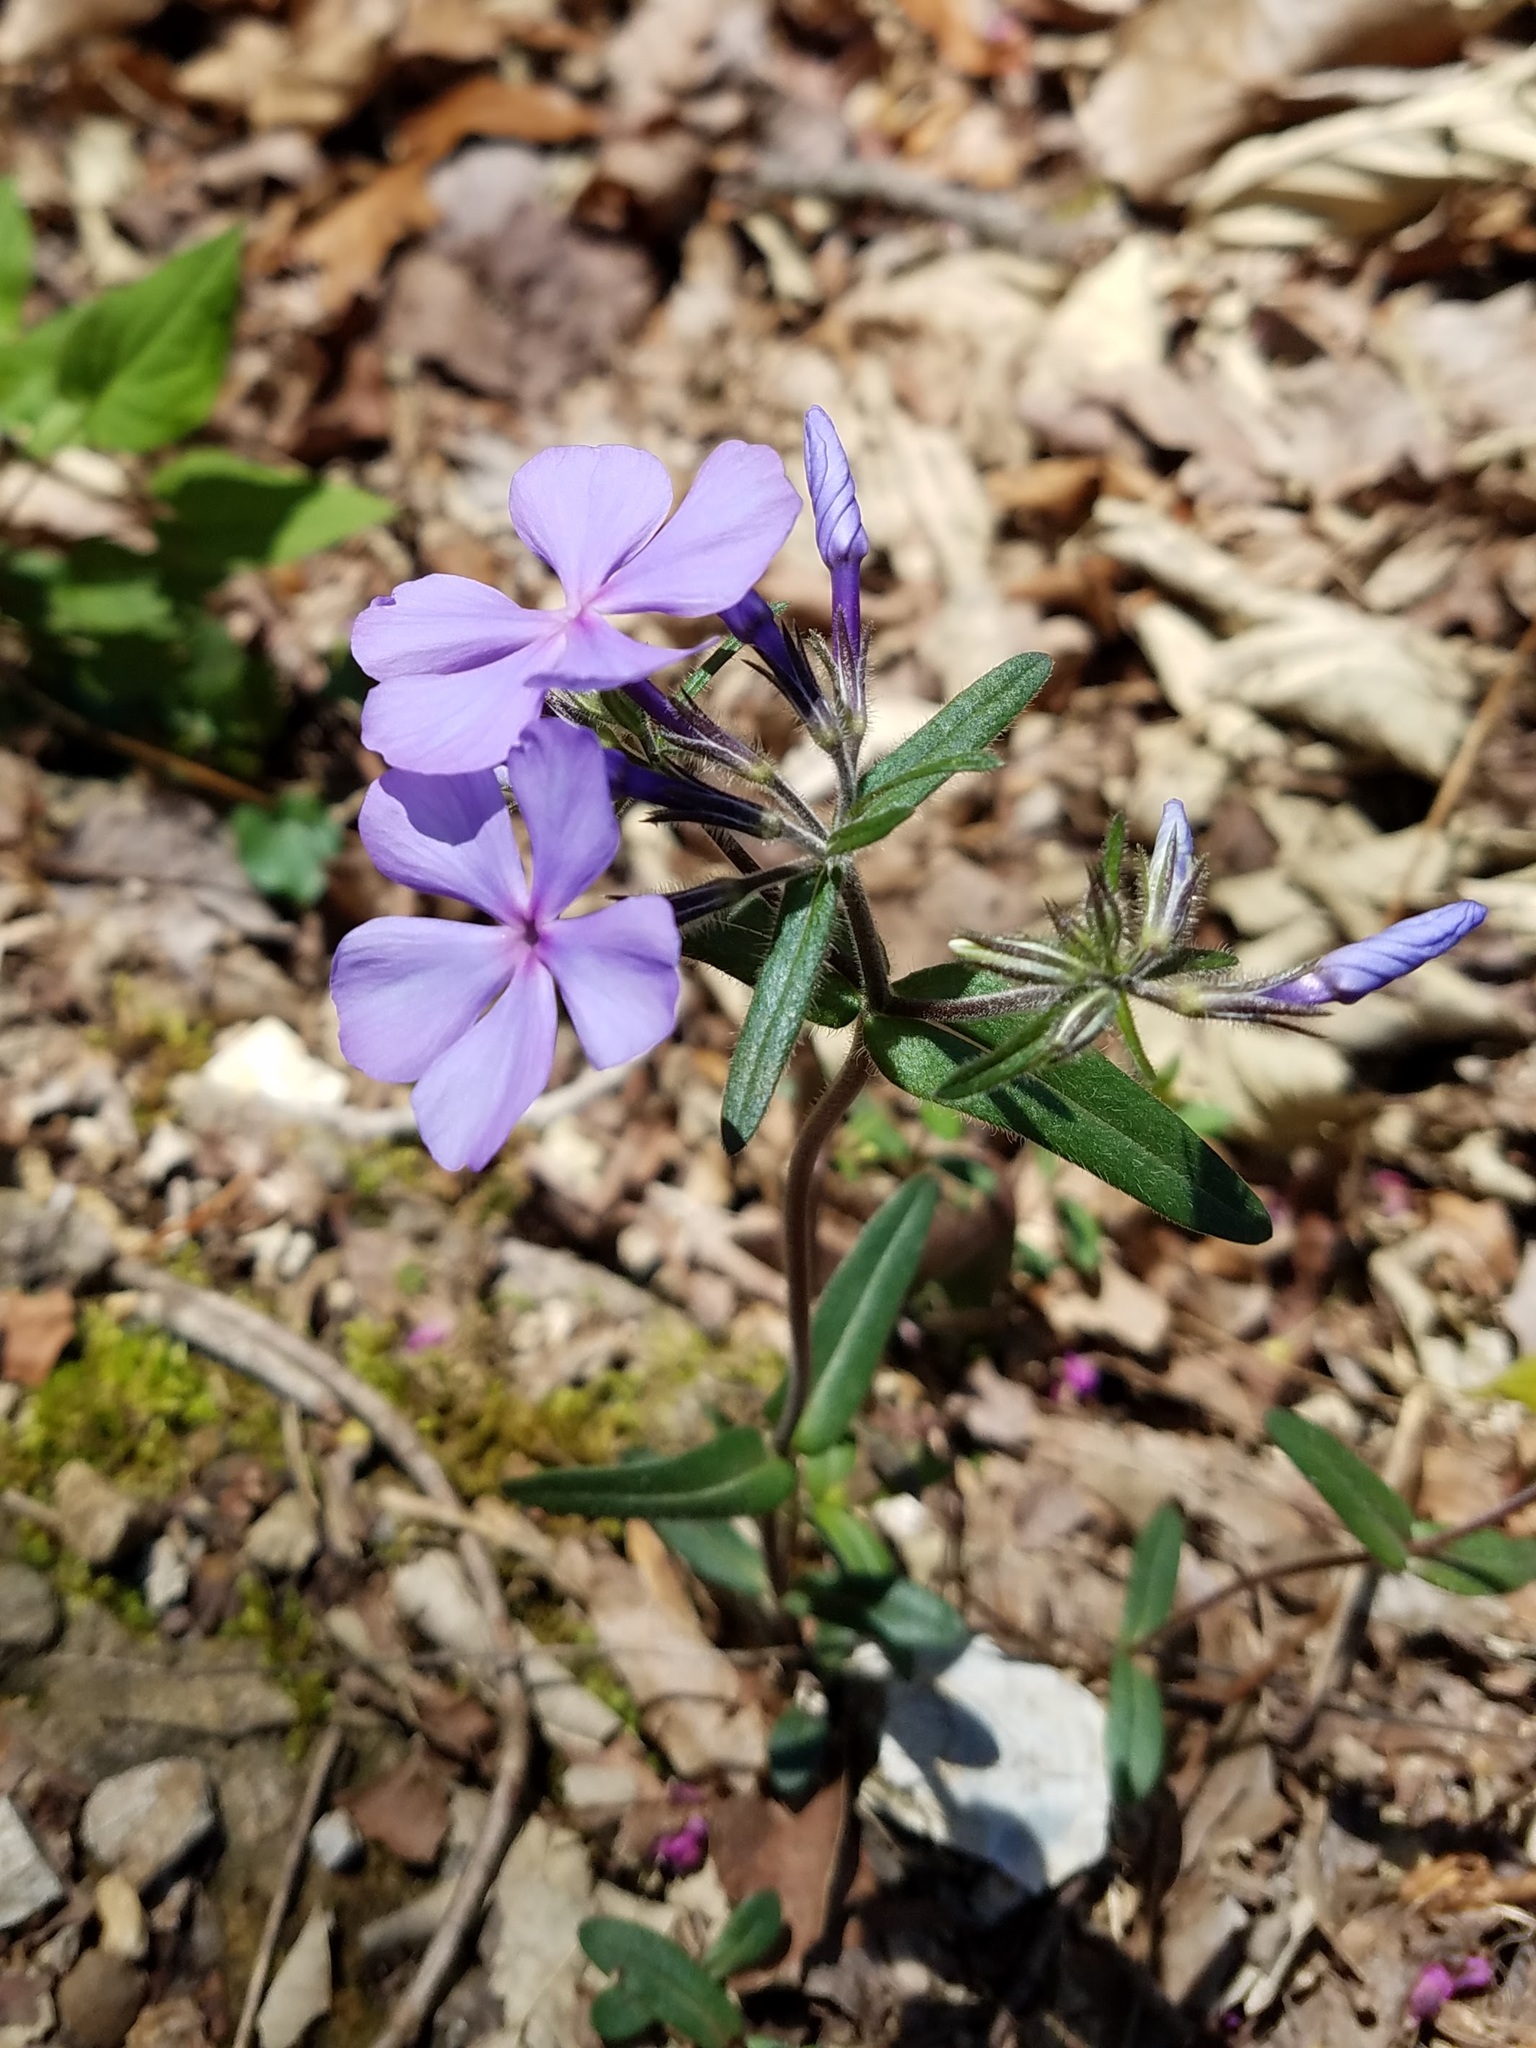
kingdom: Plantae
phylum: Tracheophyta
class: Magnoliopsida
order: Ericales
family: Polemoniaceae
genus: Phlox
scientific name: Phlox divaricata
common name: Blue phlox
